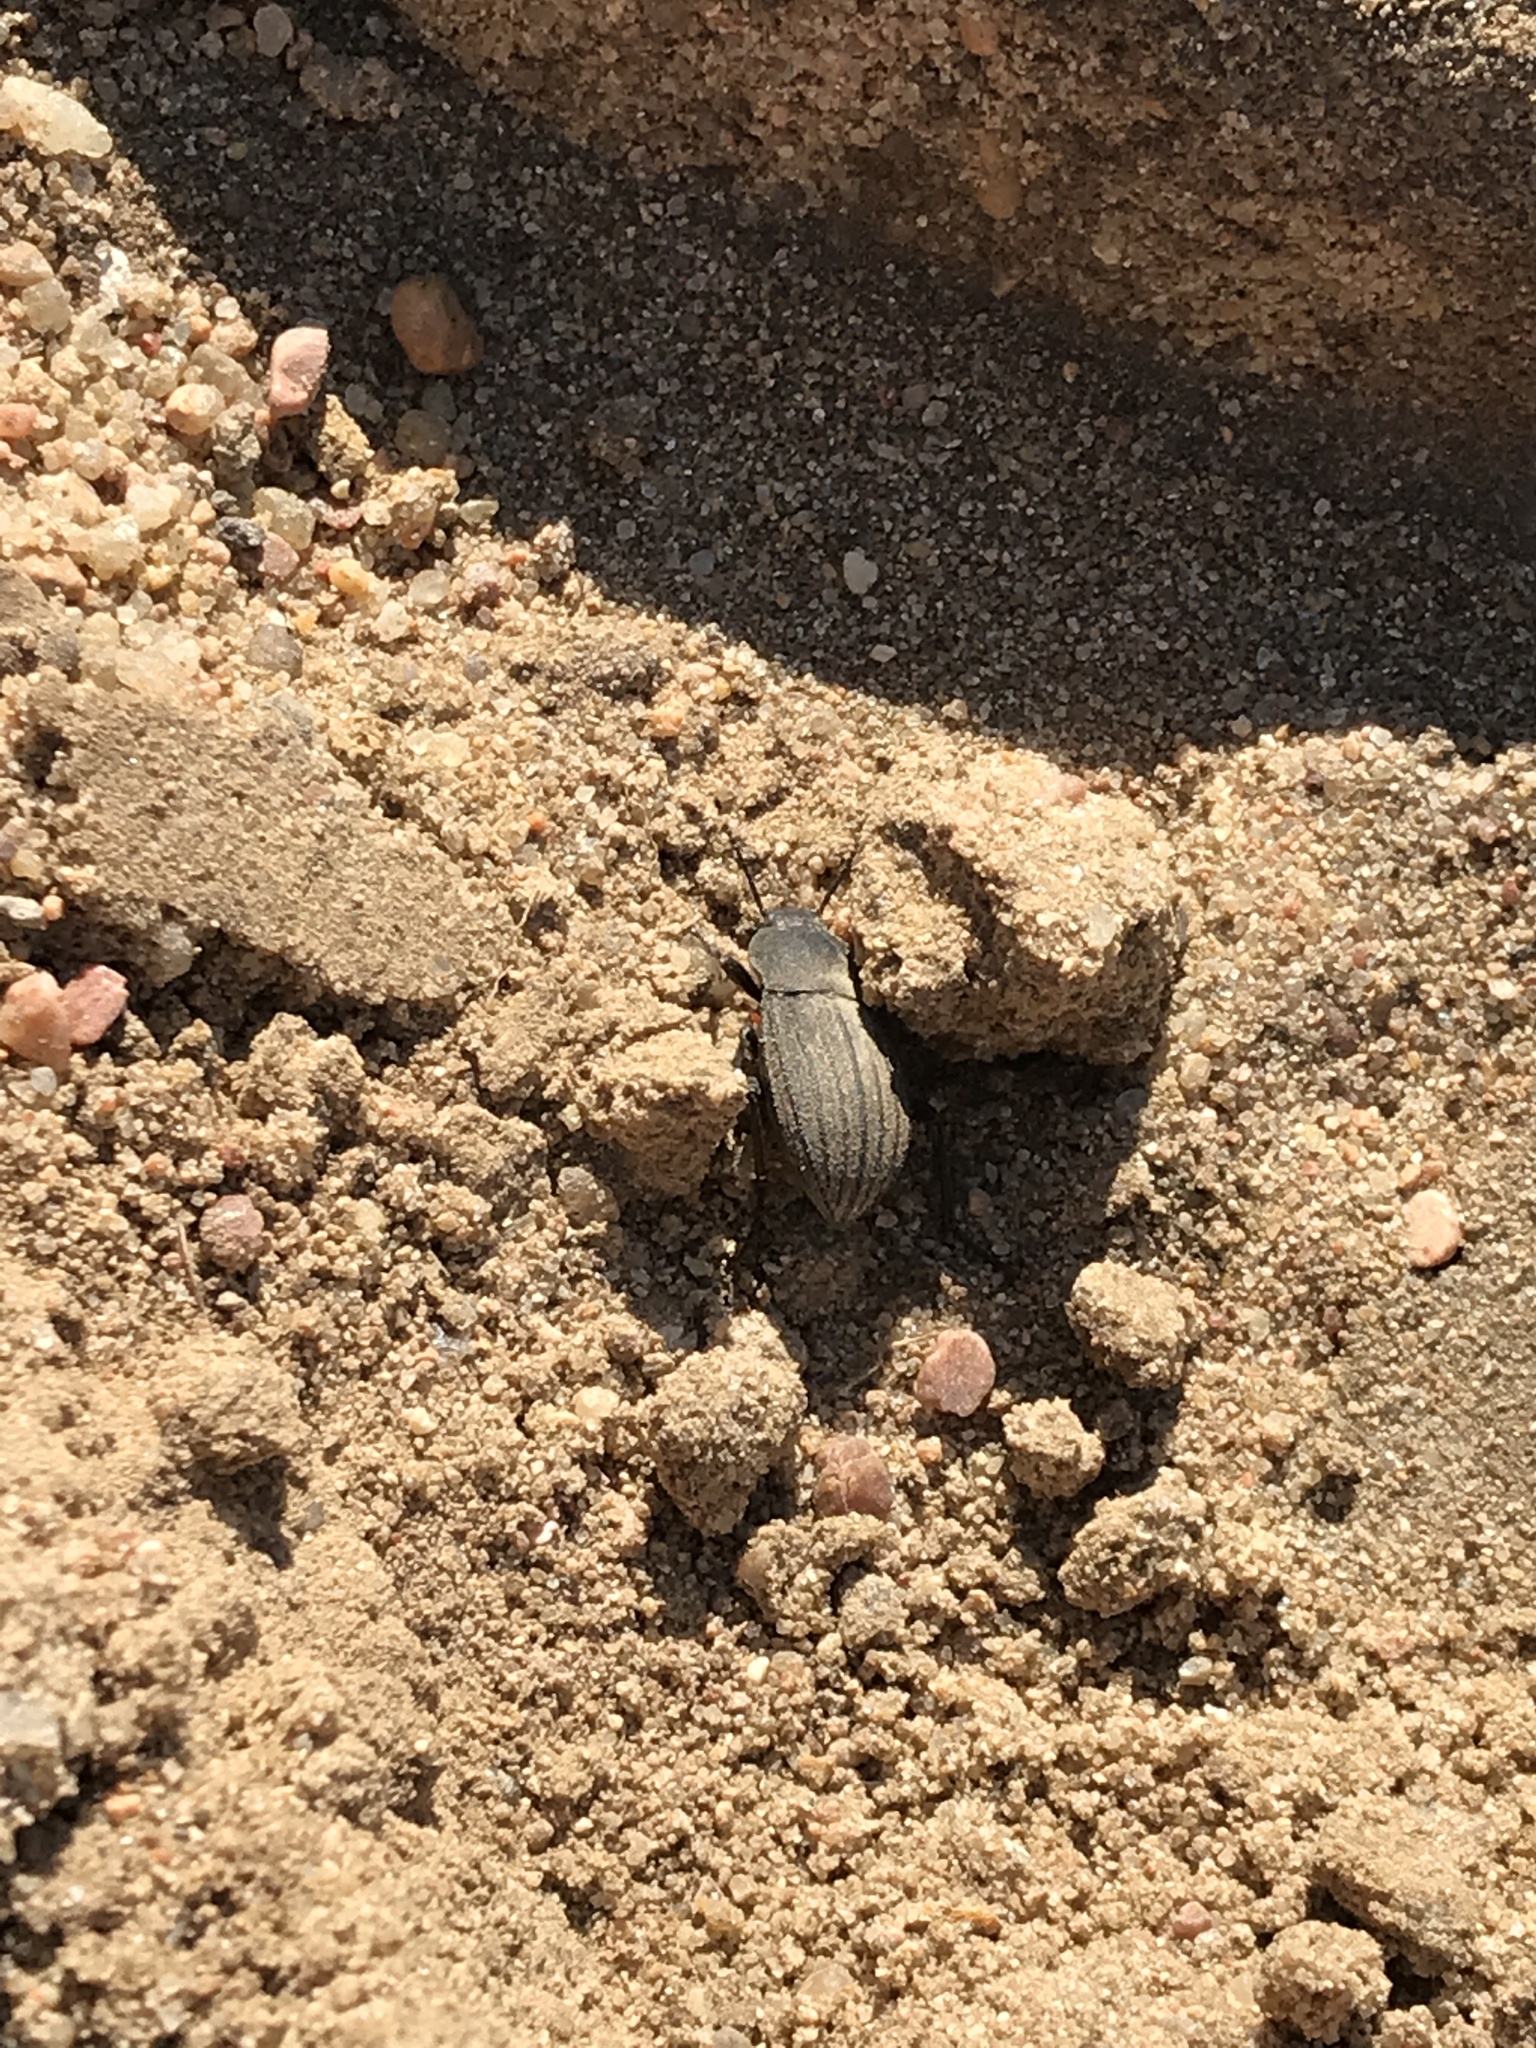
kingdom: Animalia
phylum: Arthropoda
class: Insecta
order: Coleoptera
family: Tenebrionidae
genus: Eleodes
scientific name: Eleodes tricostata
